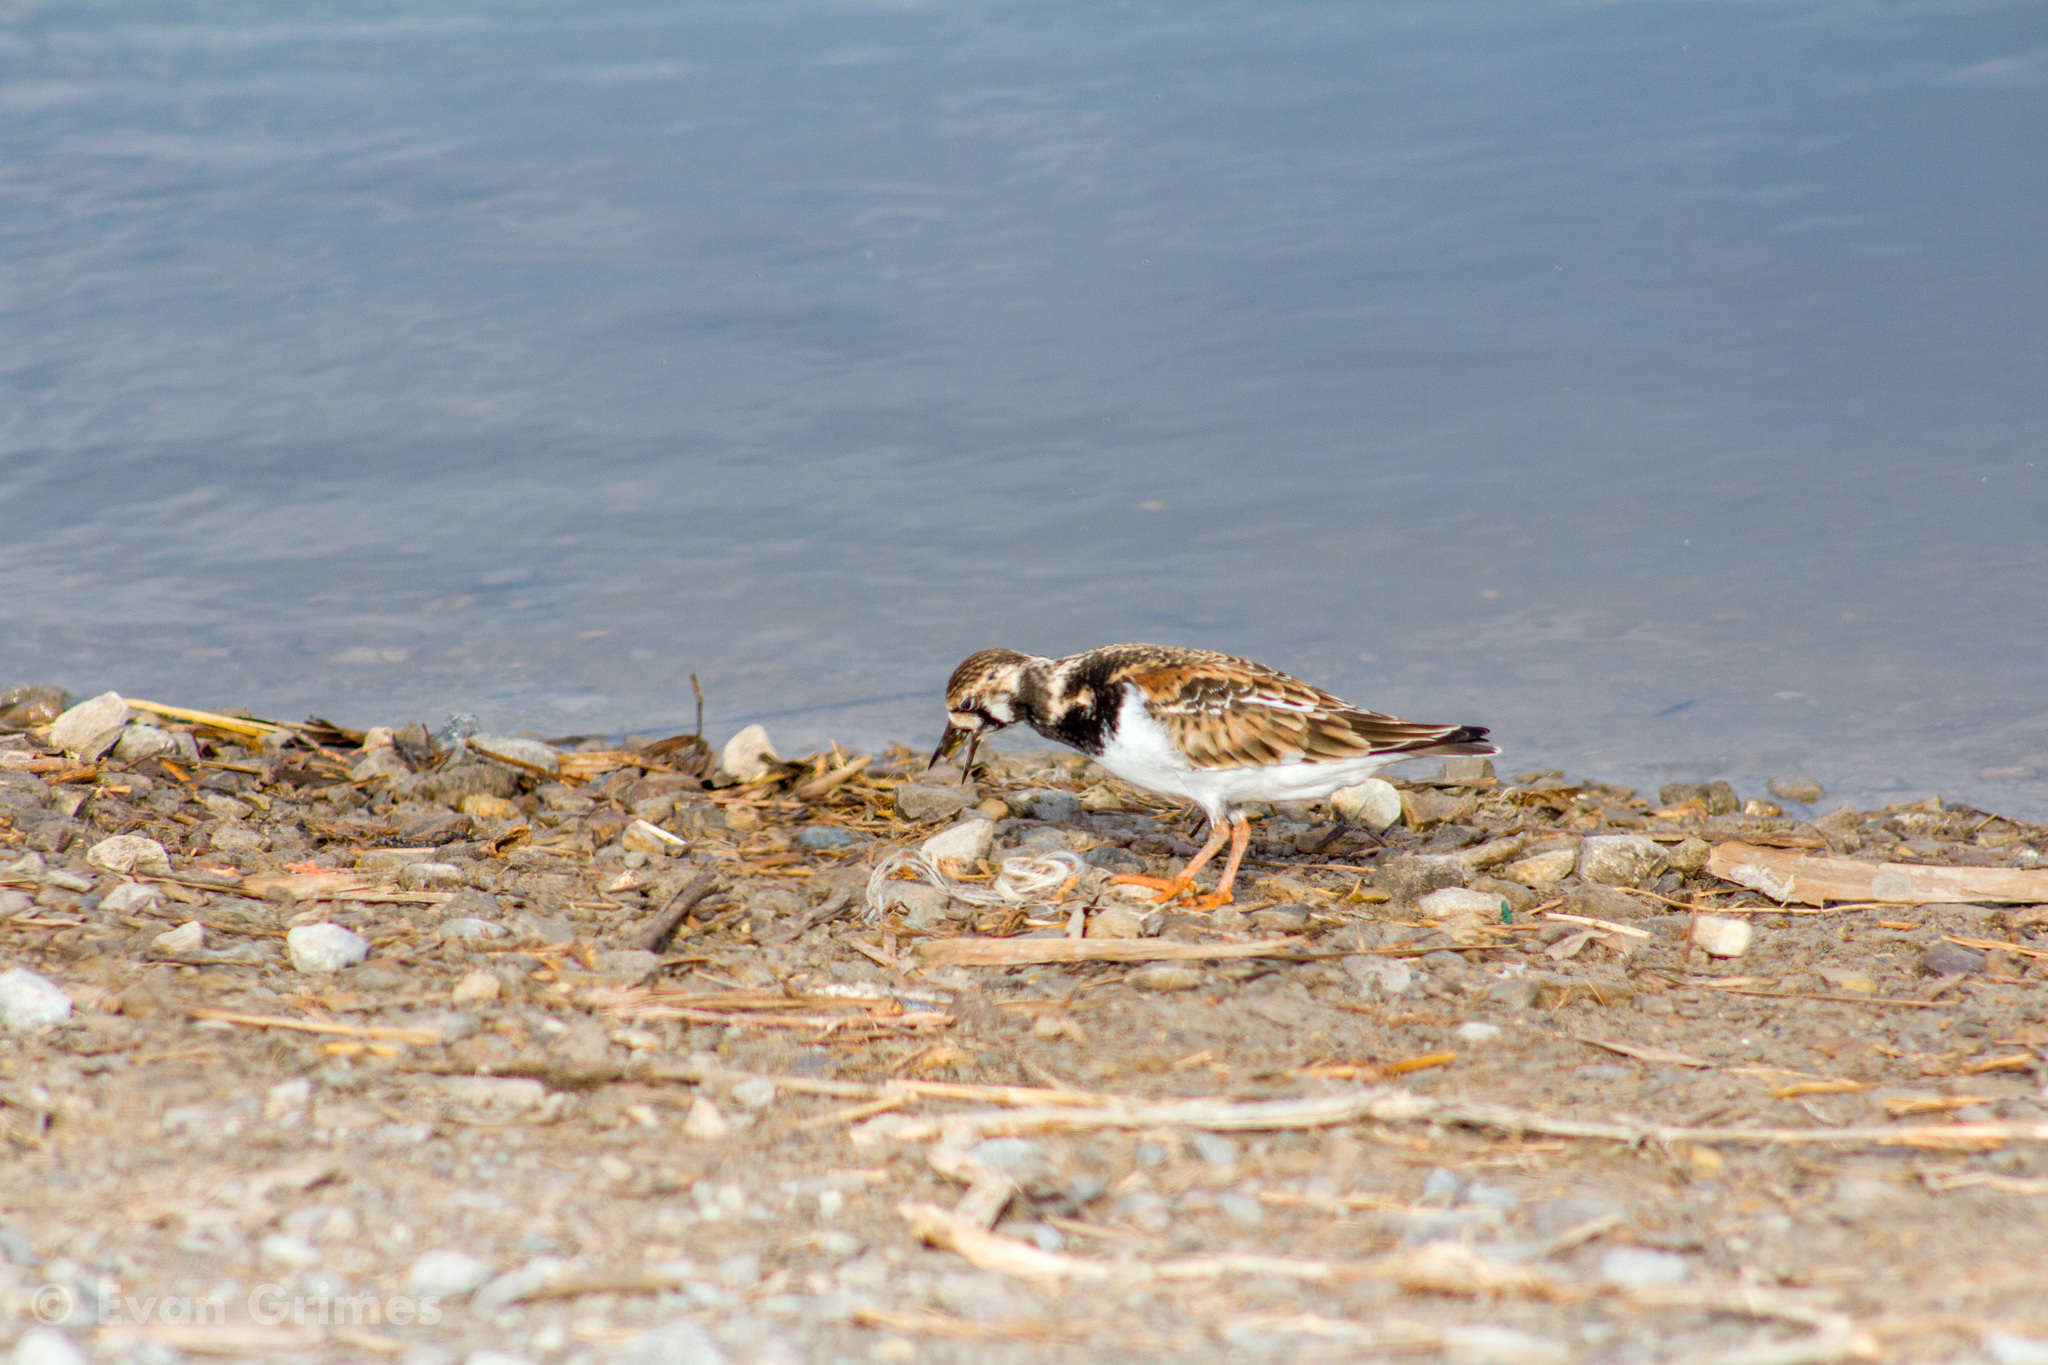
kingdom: Animalia
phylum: Chordata
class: Aves
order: Charadriiformes
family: Scolopacidae
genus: Arenaria
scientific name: Arenaria interpres
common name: Ruddy turnstone
